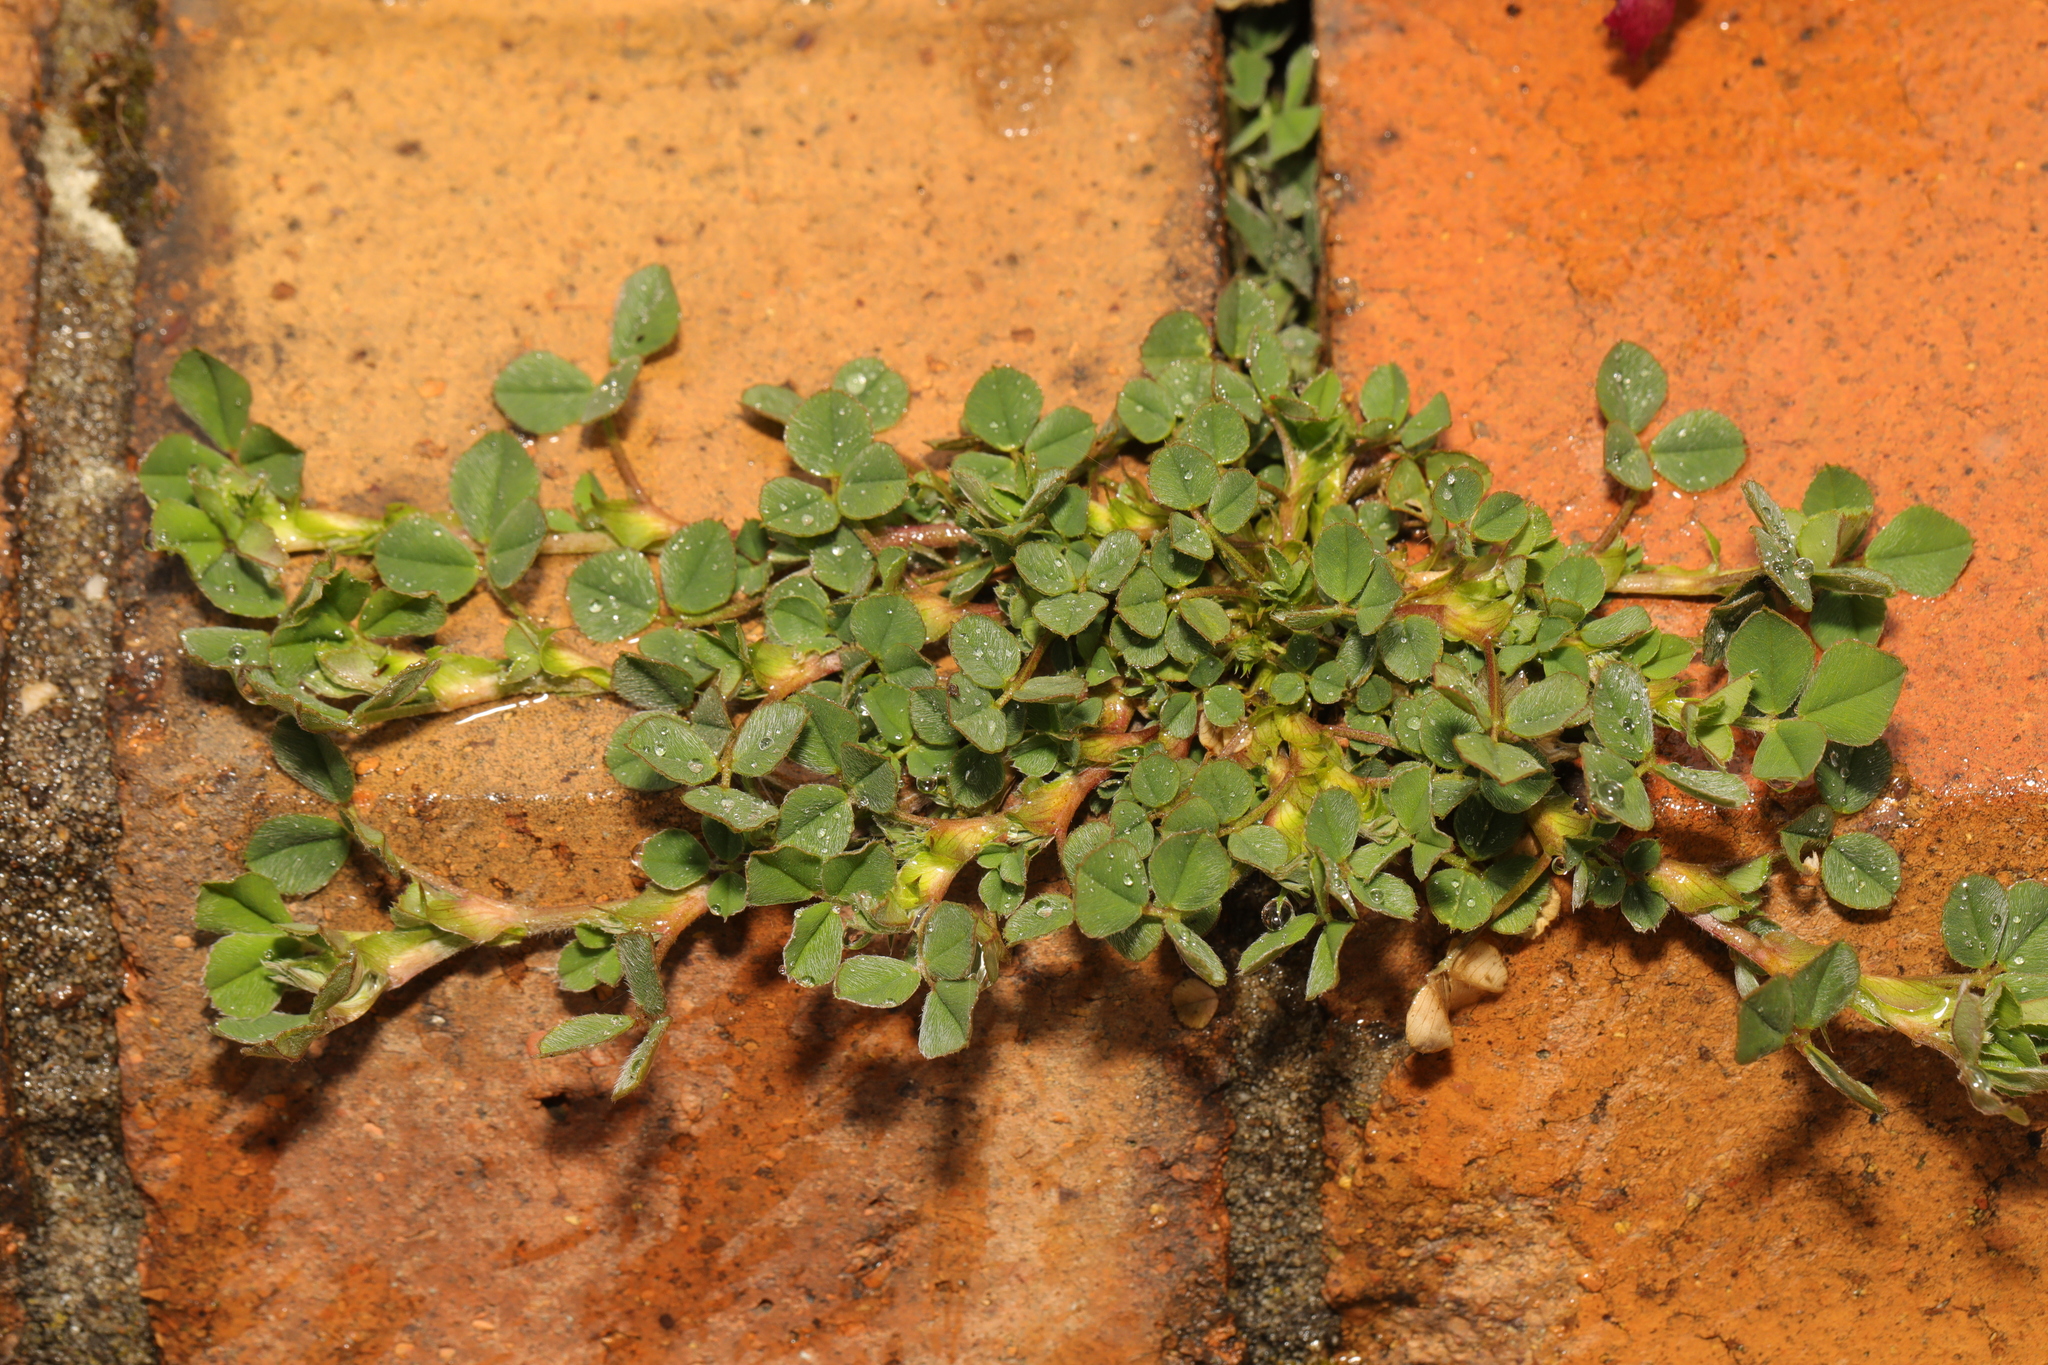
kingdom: Plantae
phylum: Tracheophyta
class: Magnoliopsida
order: Fabales
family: Fabaceae
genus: Medicago
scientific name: Medicago lupulina
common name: Black medick
